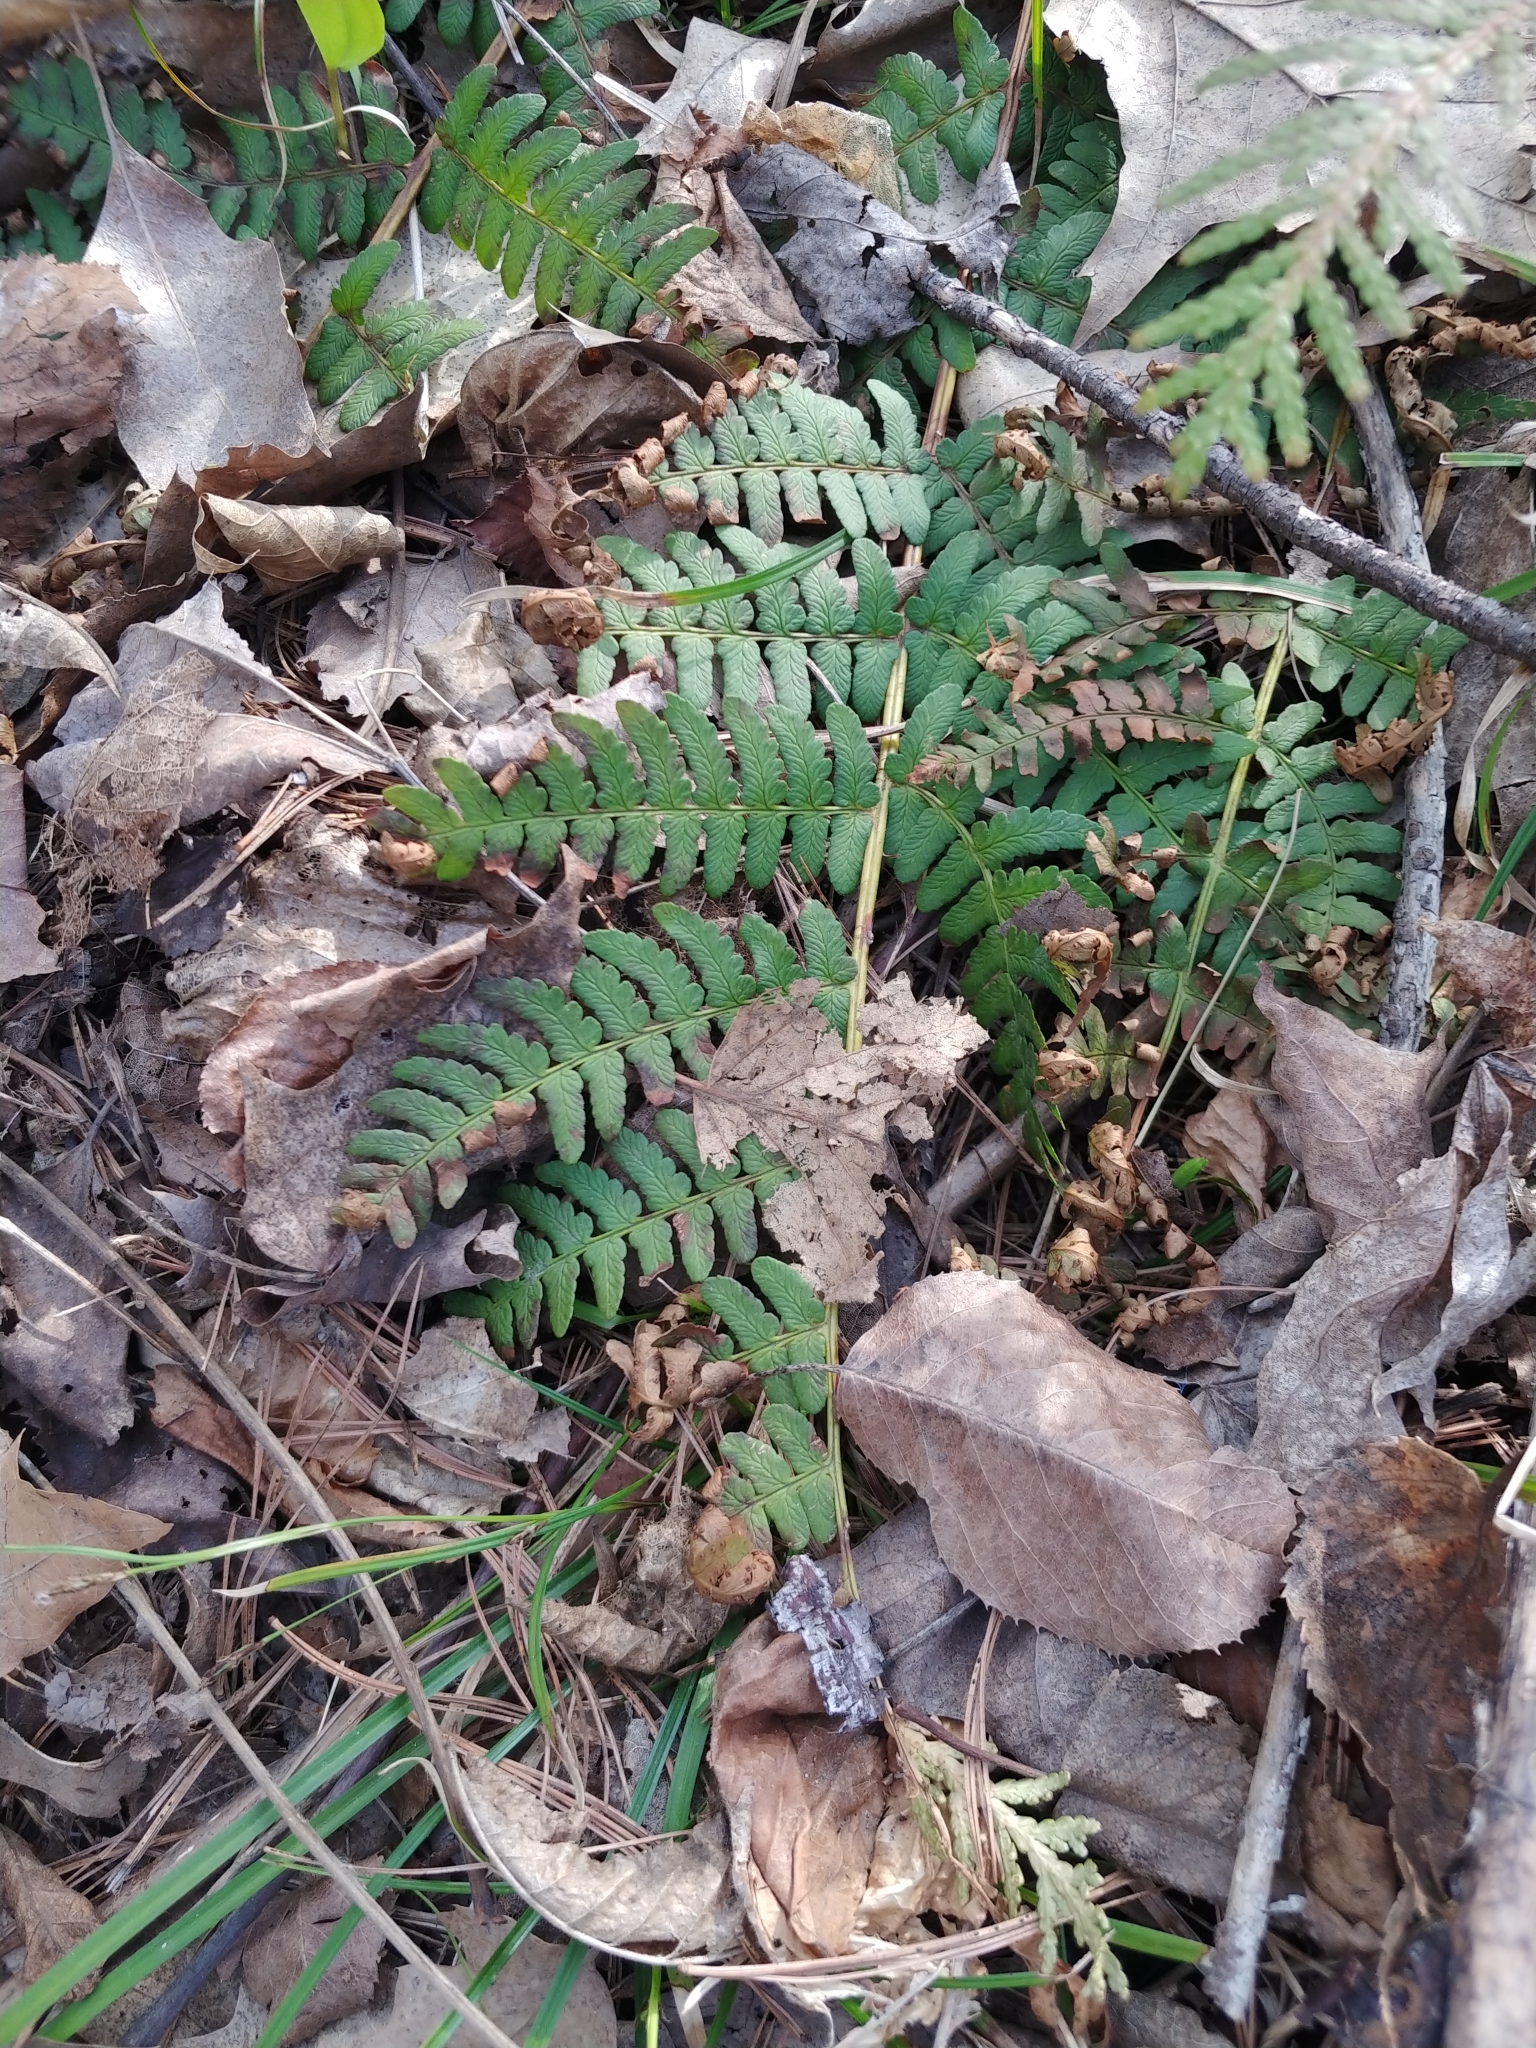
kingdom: Plantae
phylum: Tracheophyta
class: Polypodiopsida
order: Polypodiales
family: Dryopteridaceae
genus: Dryopteris
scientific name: Dryopteris marginalis
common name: Marginal wood fern
